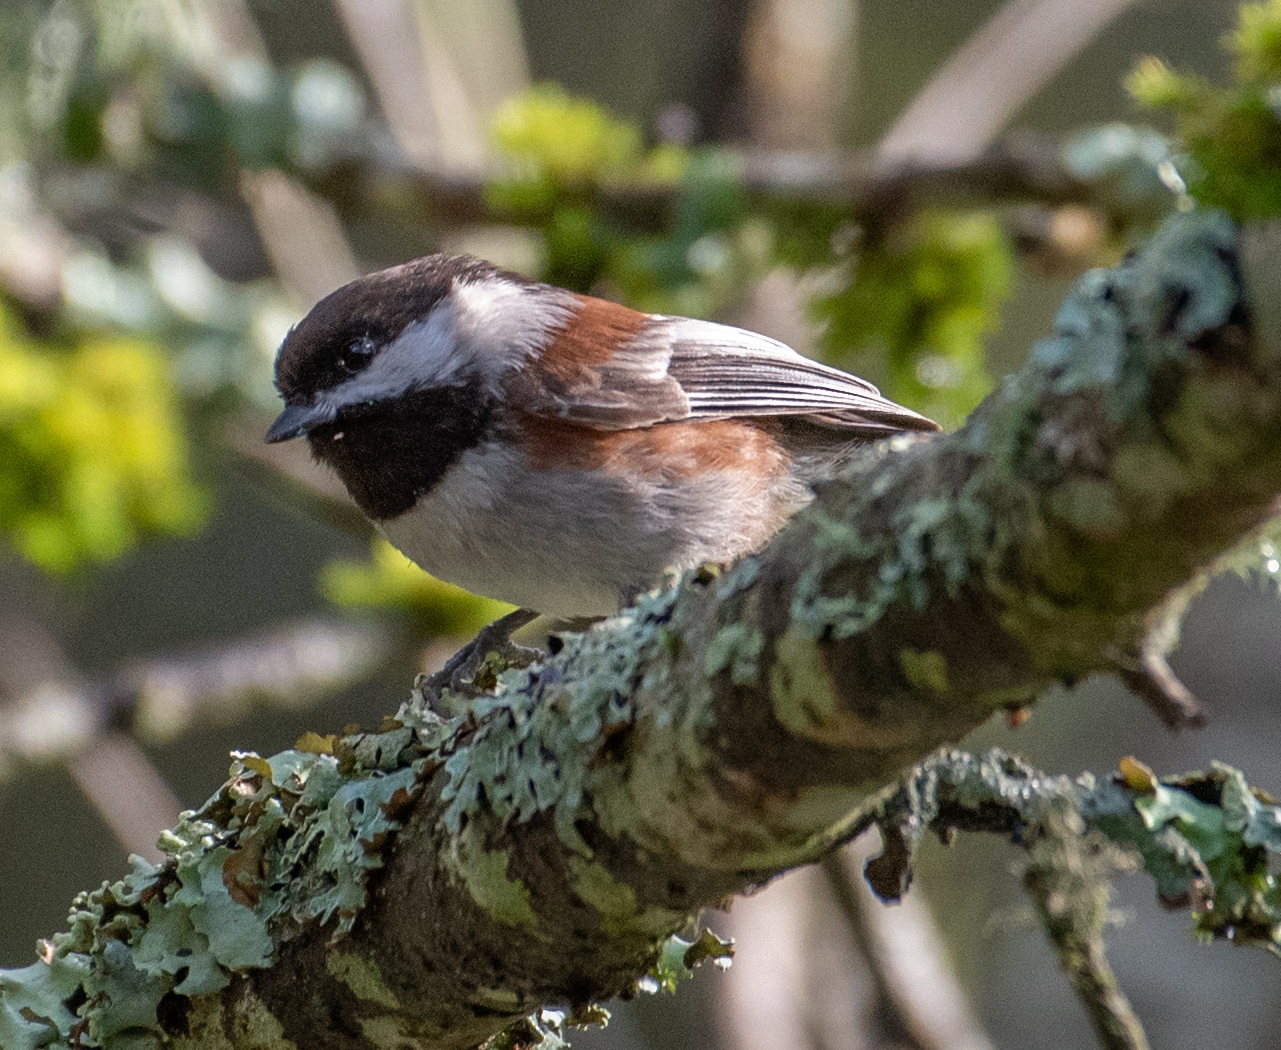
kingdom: Animalia
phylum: Chordata
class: Aves
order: Passeriformes
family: Paridae
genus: Poecile
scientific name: Poecile rufescens
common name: Chestnut-backed chickadee
